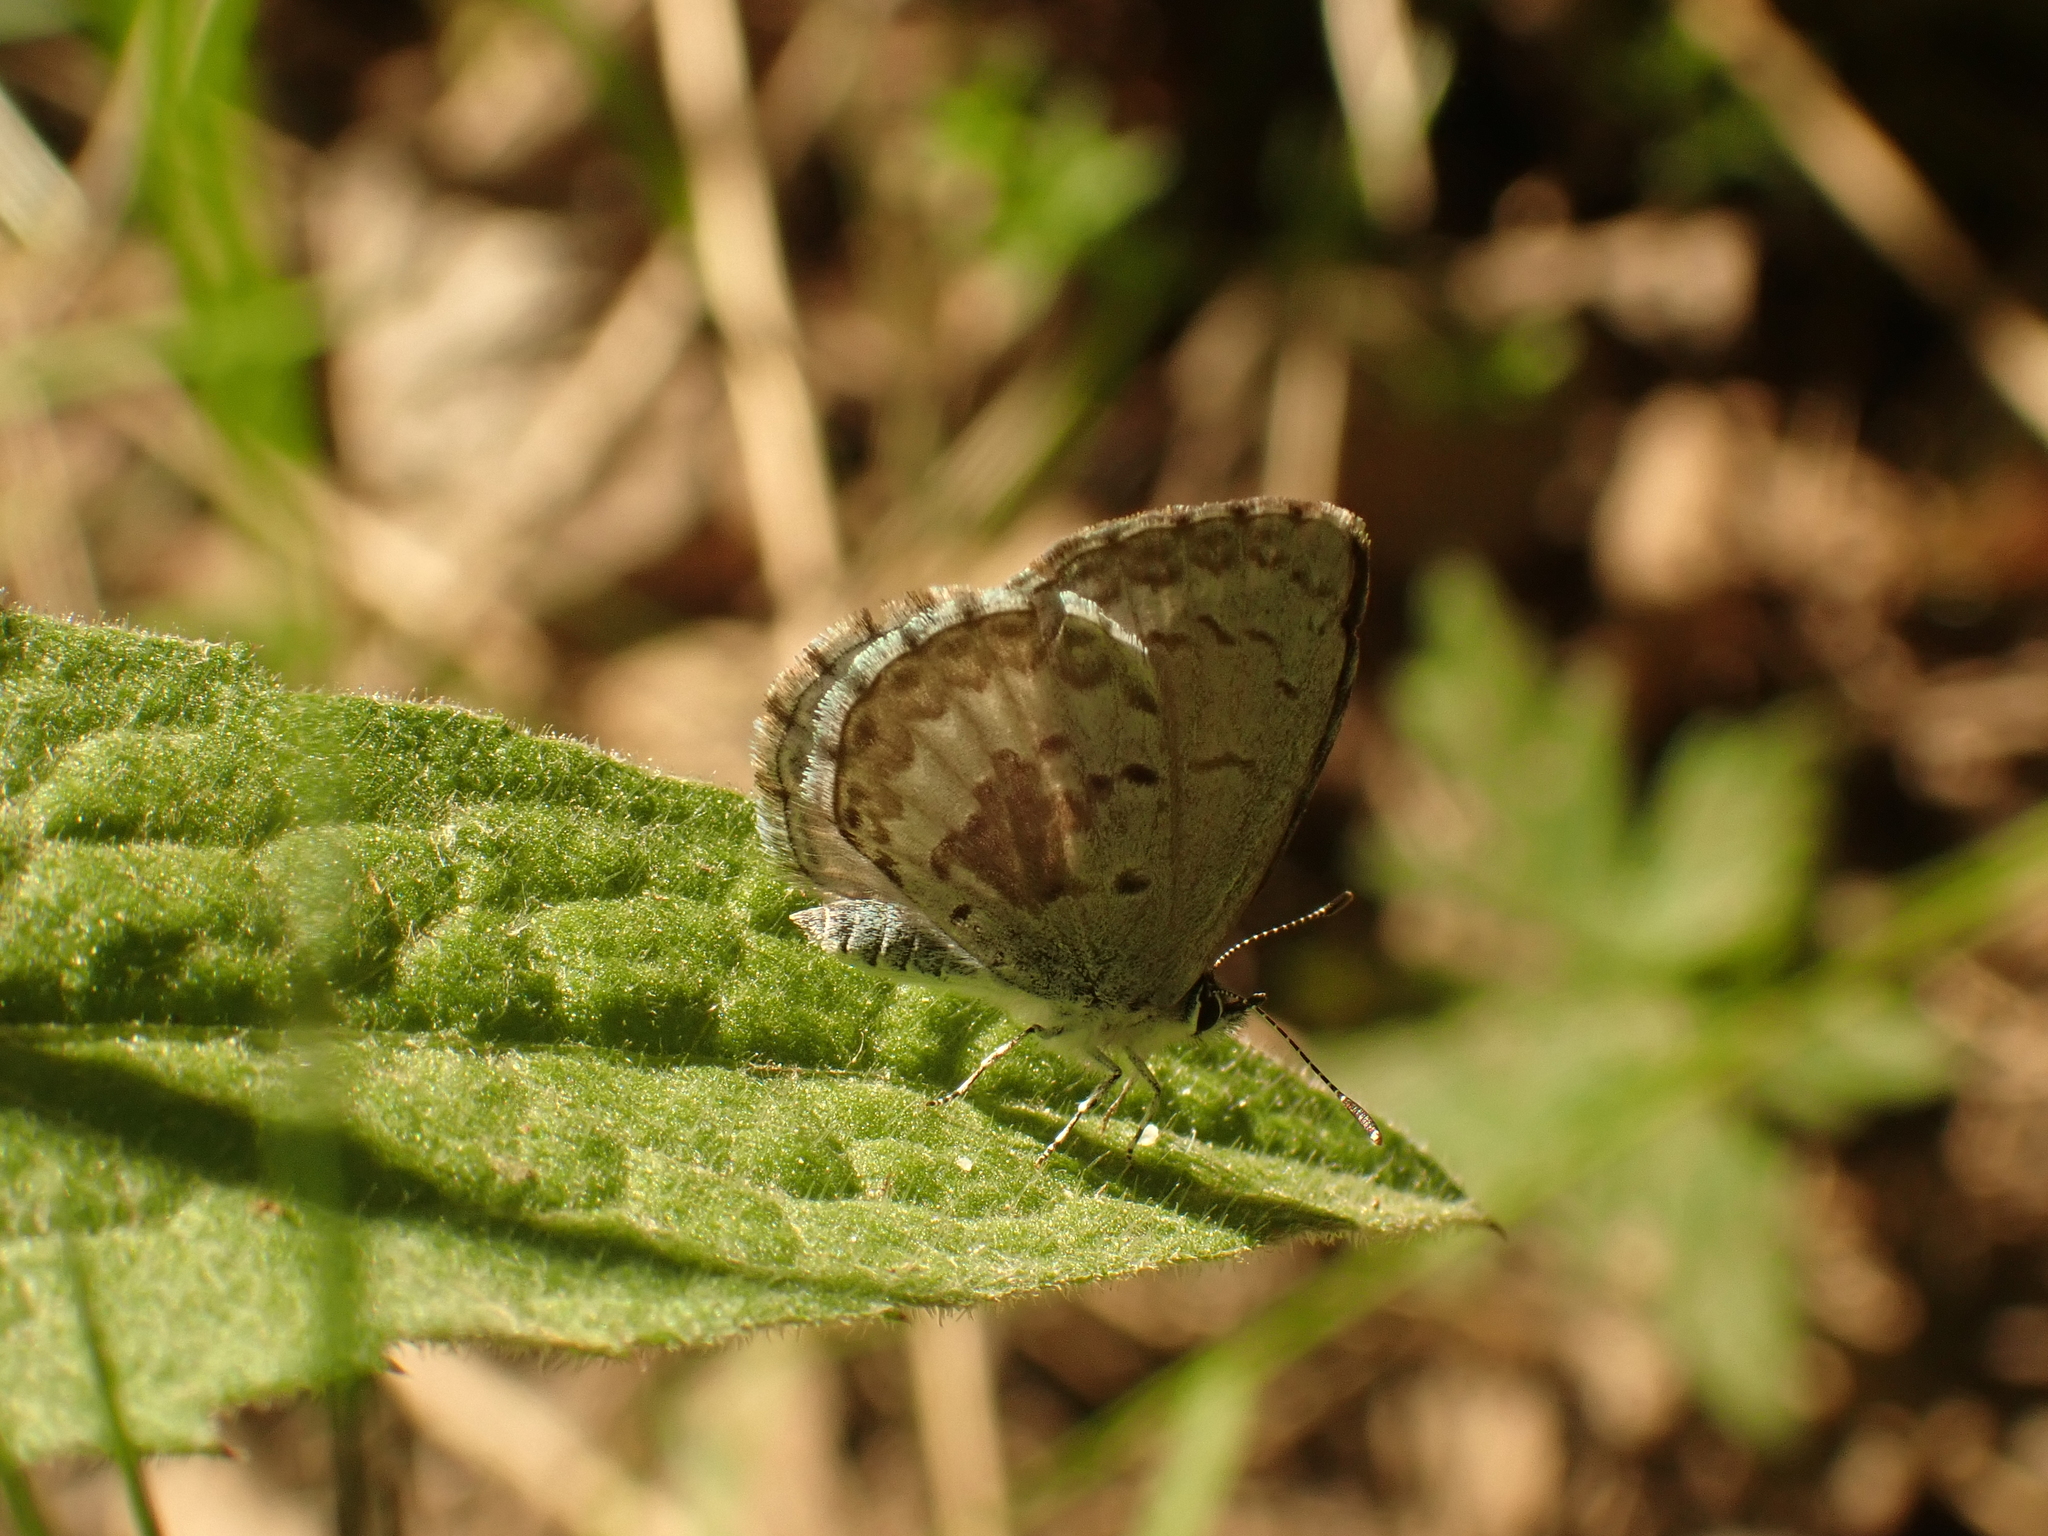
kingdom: Animalia
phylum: Arthropoda
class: Insecta
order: Lepidoptera
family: Lycaenidae
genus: Celastrina
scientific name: Celastrina lucia
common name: Lucia azure
